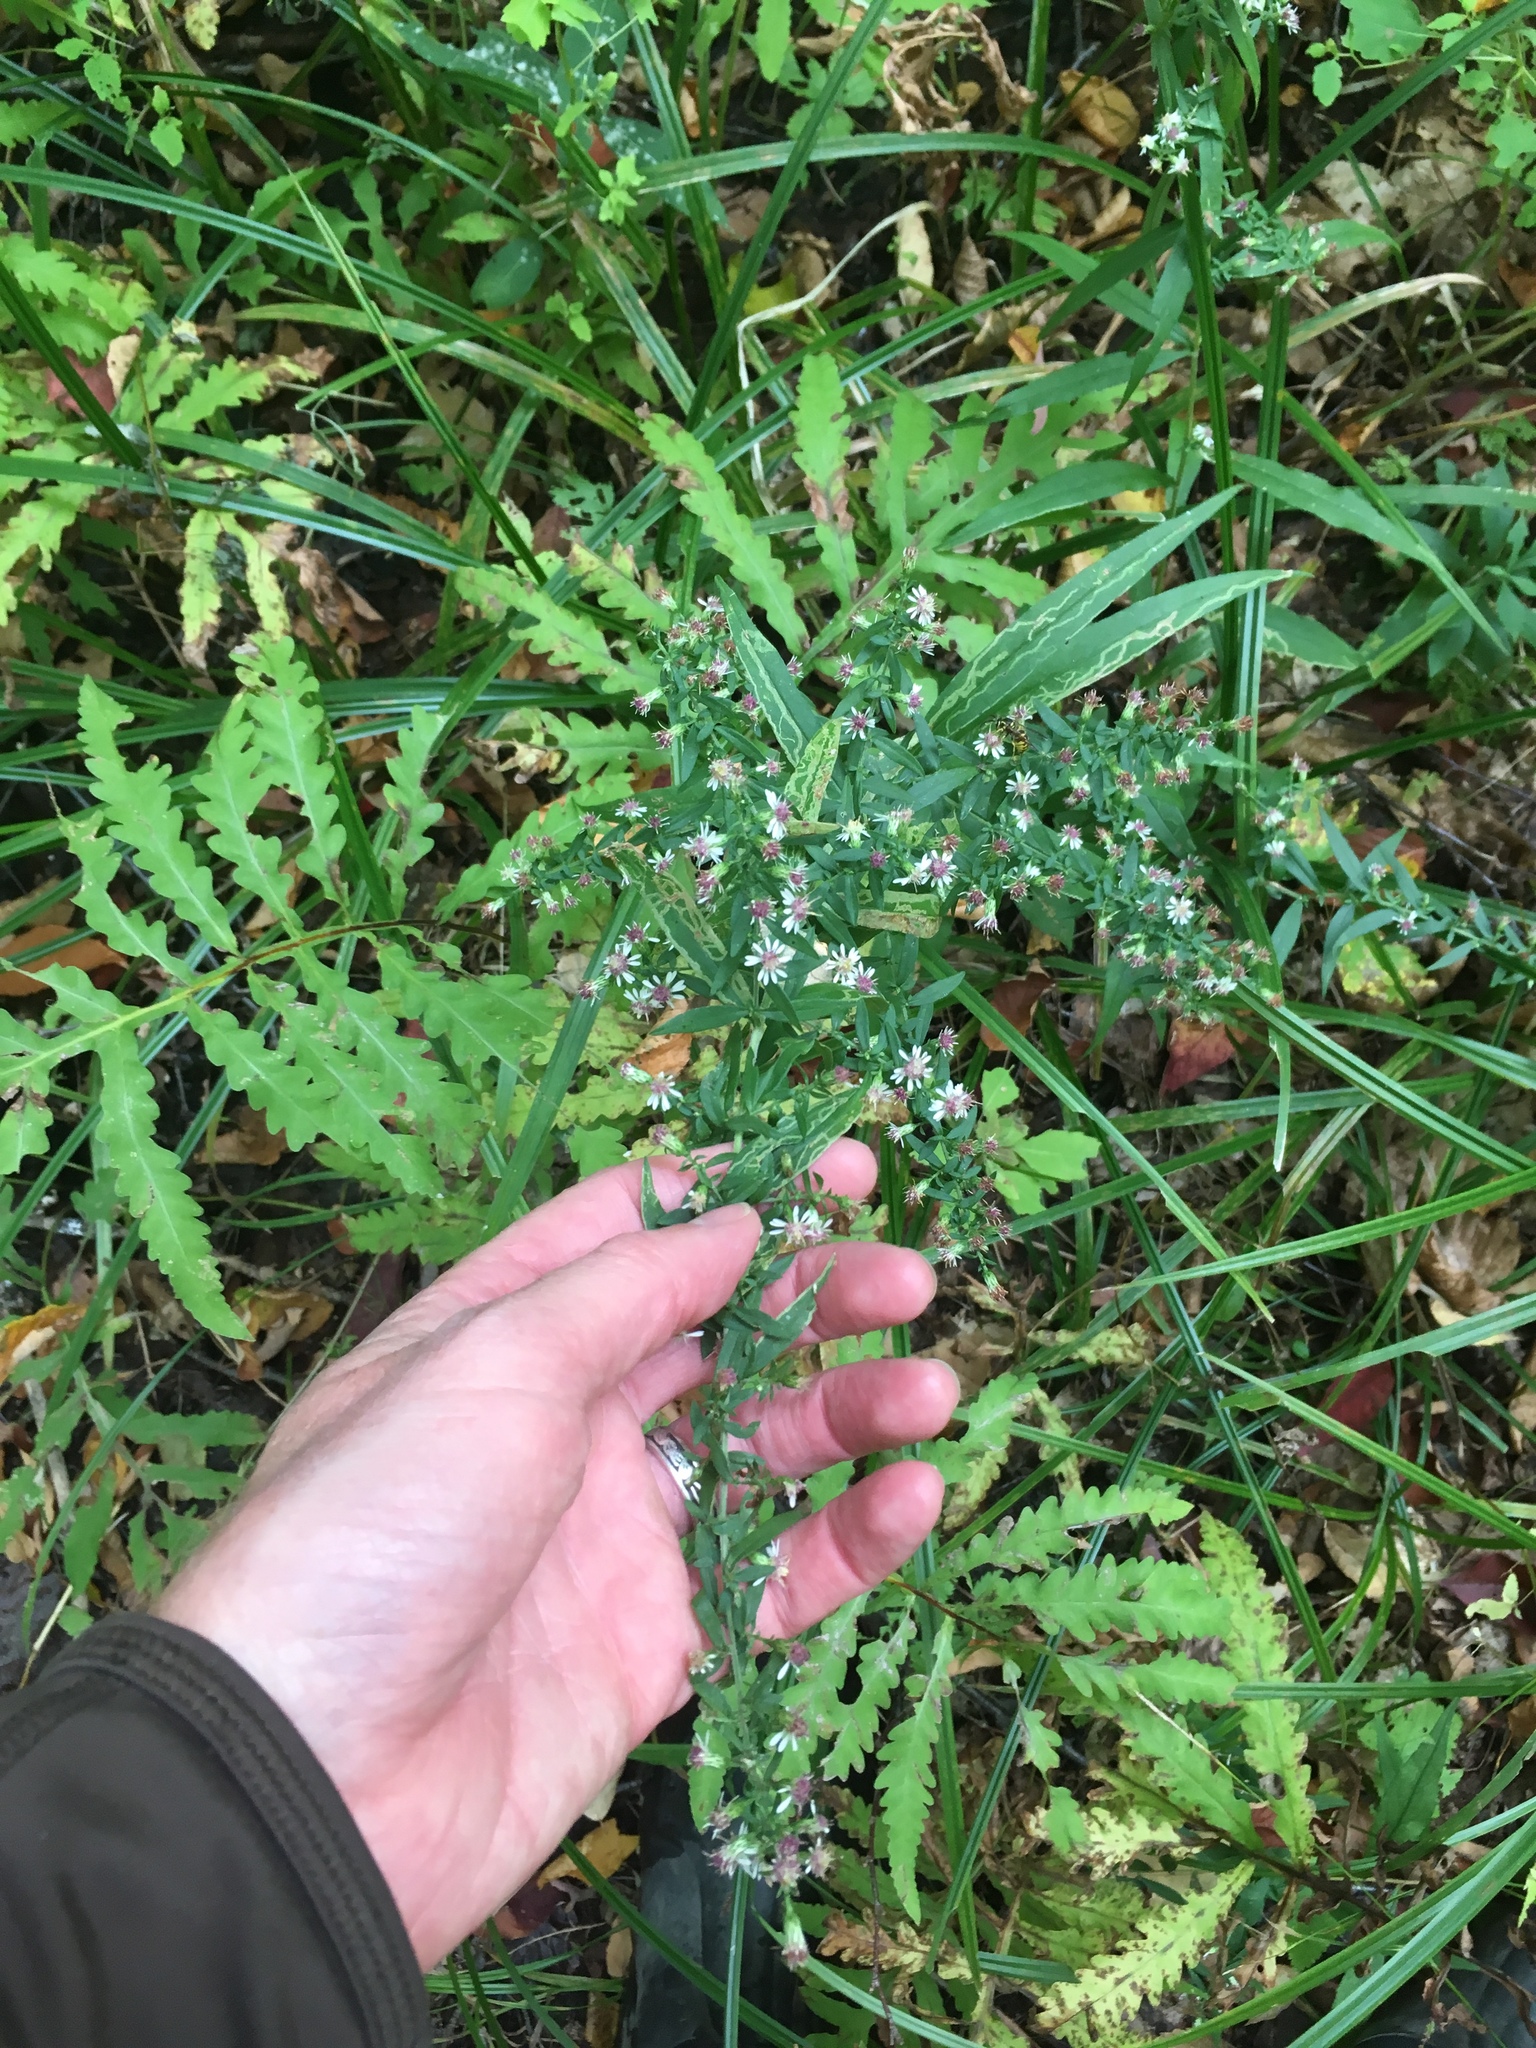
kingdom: Plantae
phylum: Tracheophyta
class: Magnoliopsida
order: Asterales
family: Asteraceae
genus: Symphyotrichum
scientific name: Symphyotrichum lateriflorum
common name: Calico aster
